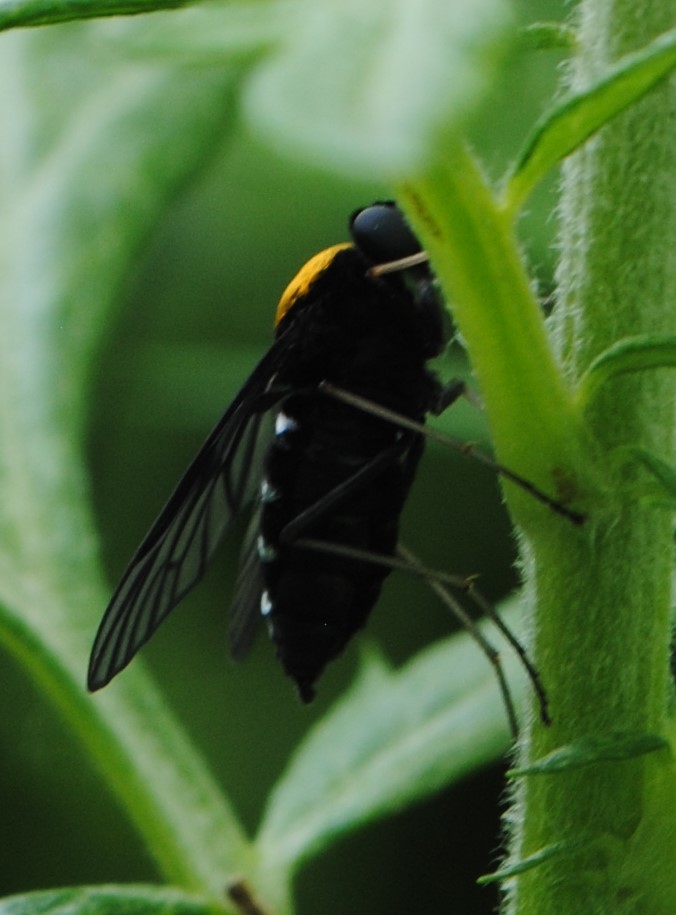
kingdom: Animalia
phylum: Arthropoda
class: Insecta
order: Diptera
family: Rhagionidae
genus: Chrysopilus
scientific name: Chrysopilus thoracicus
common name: Golden-backed snipe fly
